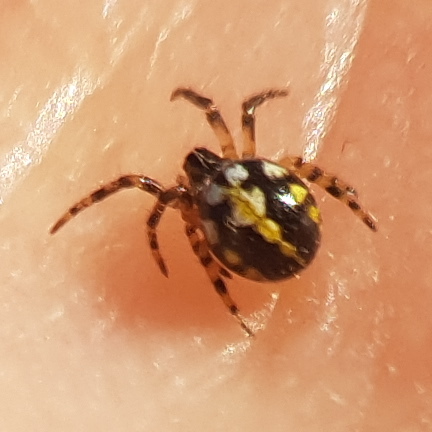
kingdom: Animalia
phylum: Arthropoda
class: Arachnida
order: Araneae
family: Araneidae
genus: Neoscona
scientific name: Neoscona adianta
